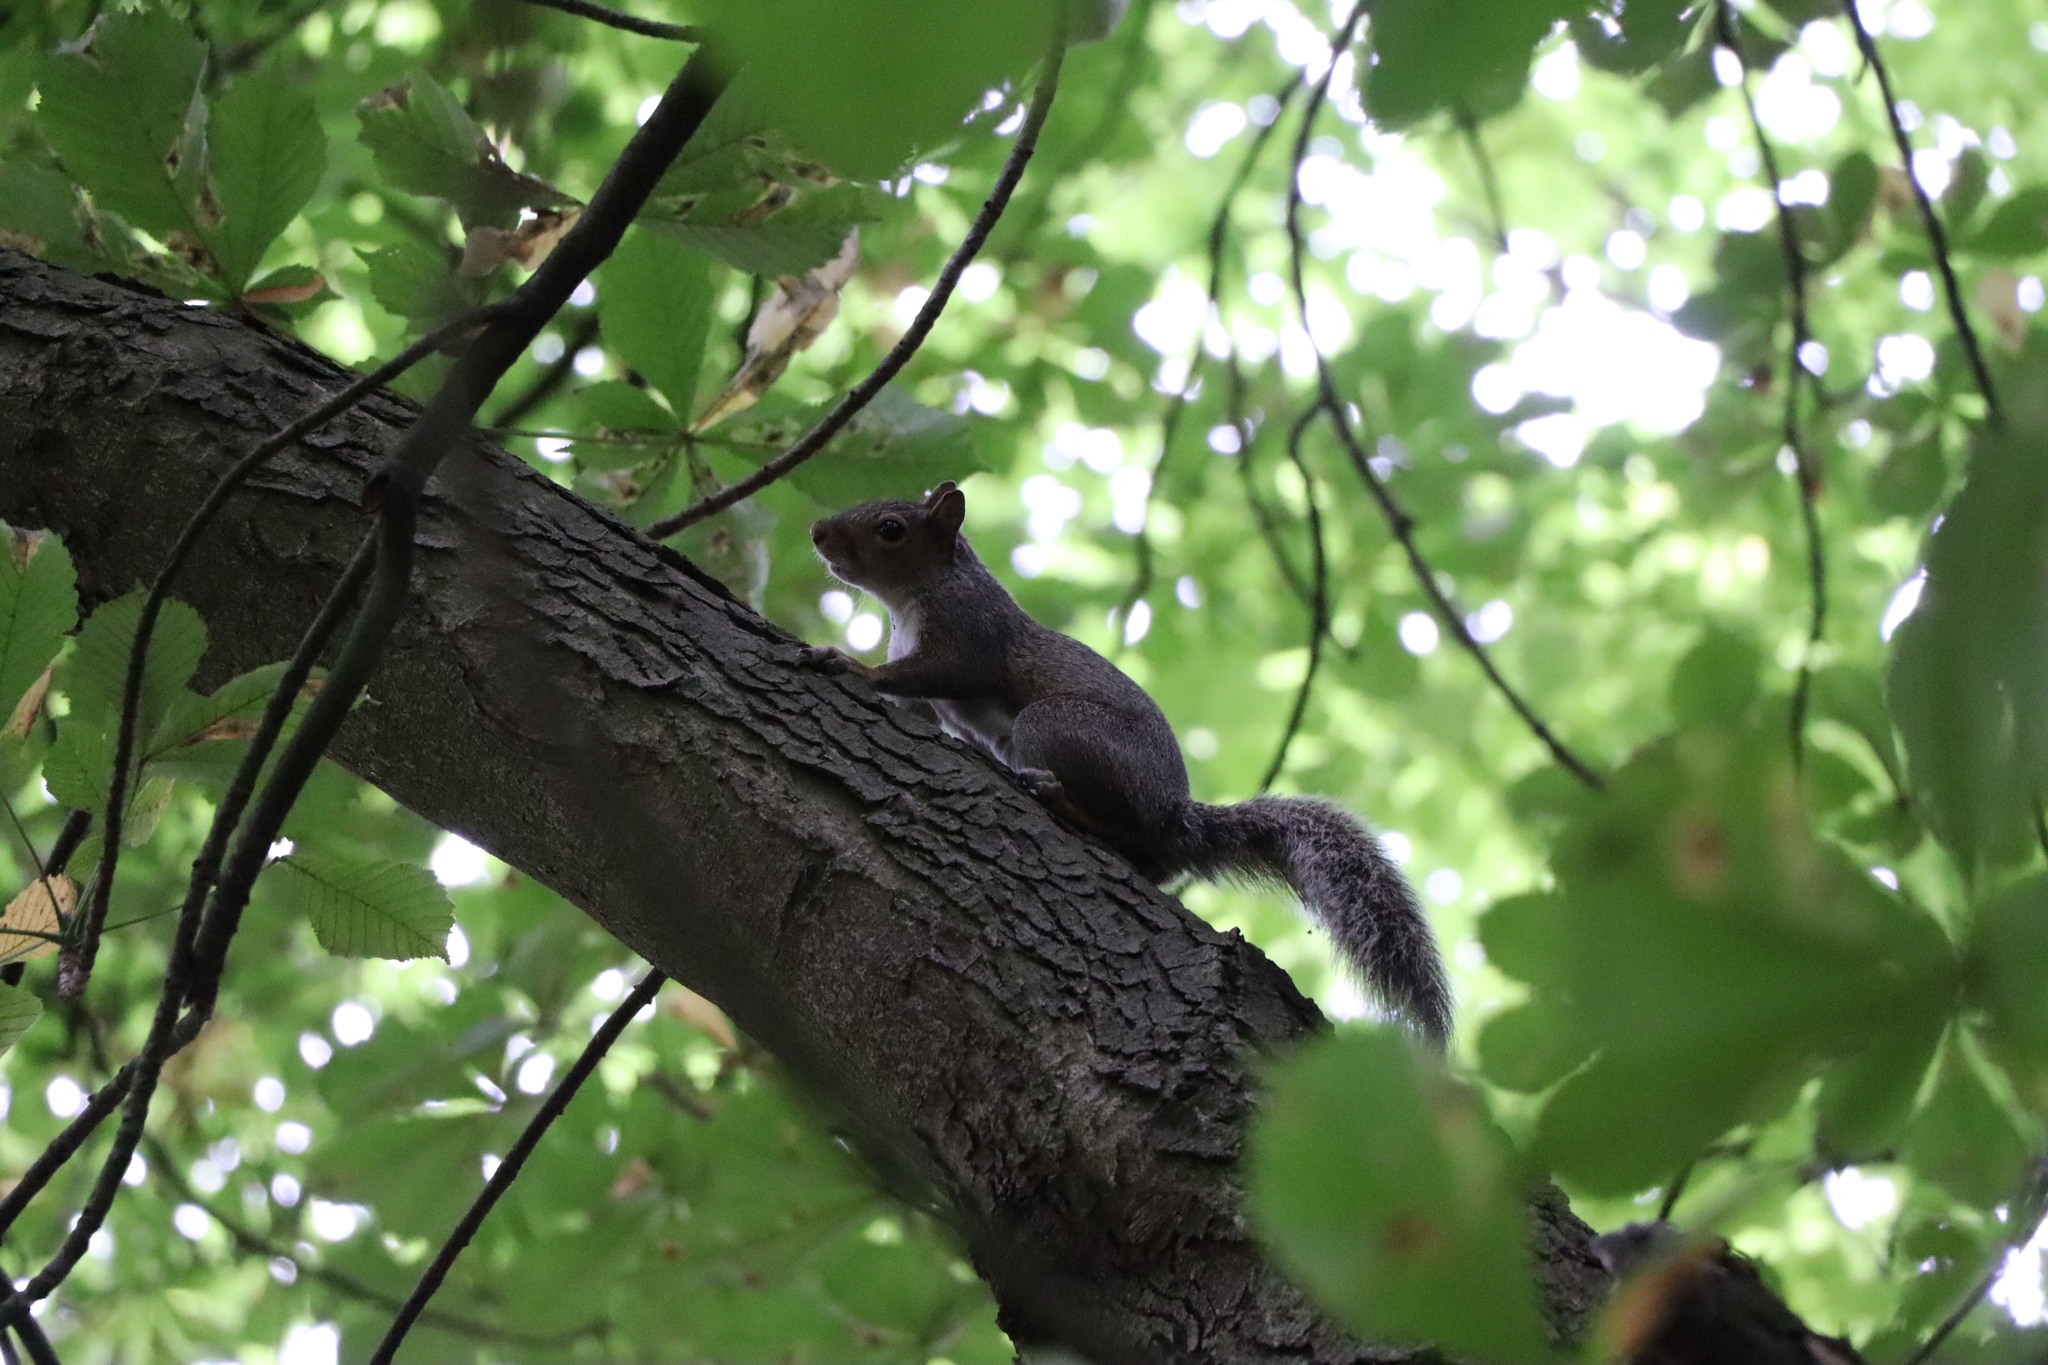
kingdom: Animalia
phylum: Chordata
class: Mammalia
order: Rodentia
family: Sciuridae
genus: Sciurus
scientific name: Sciurus carolinensis
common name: Eastern gray squirrel
